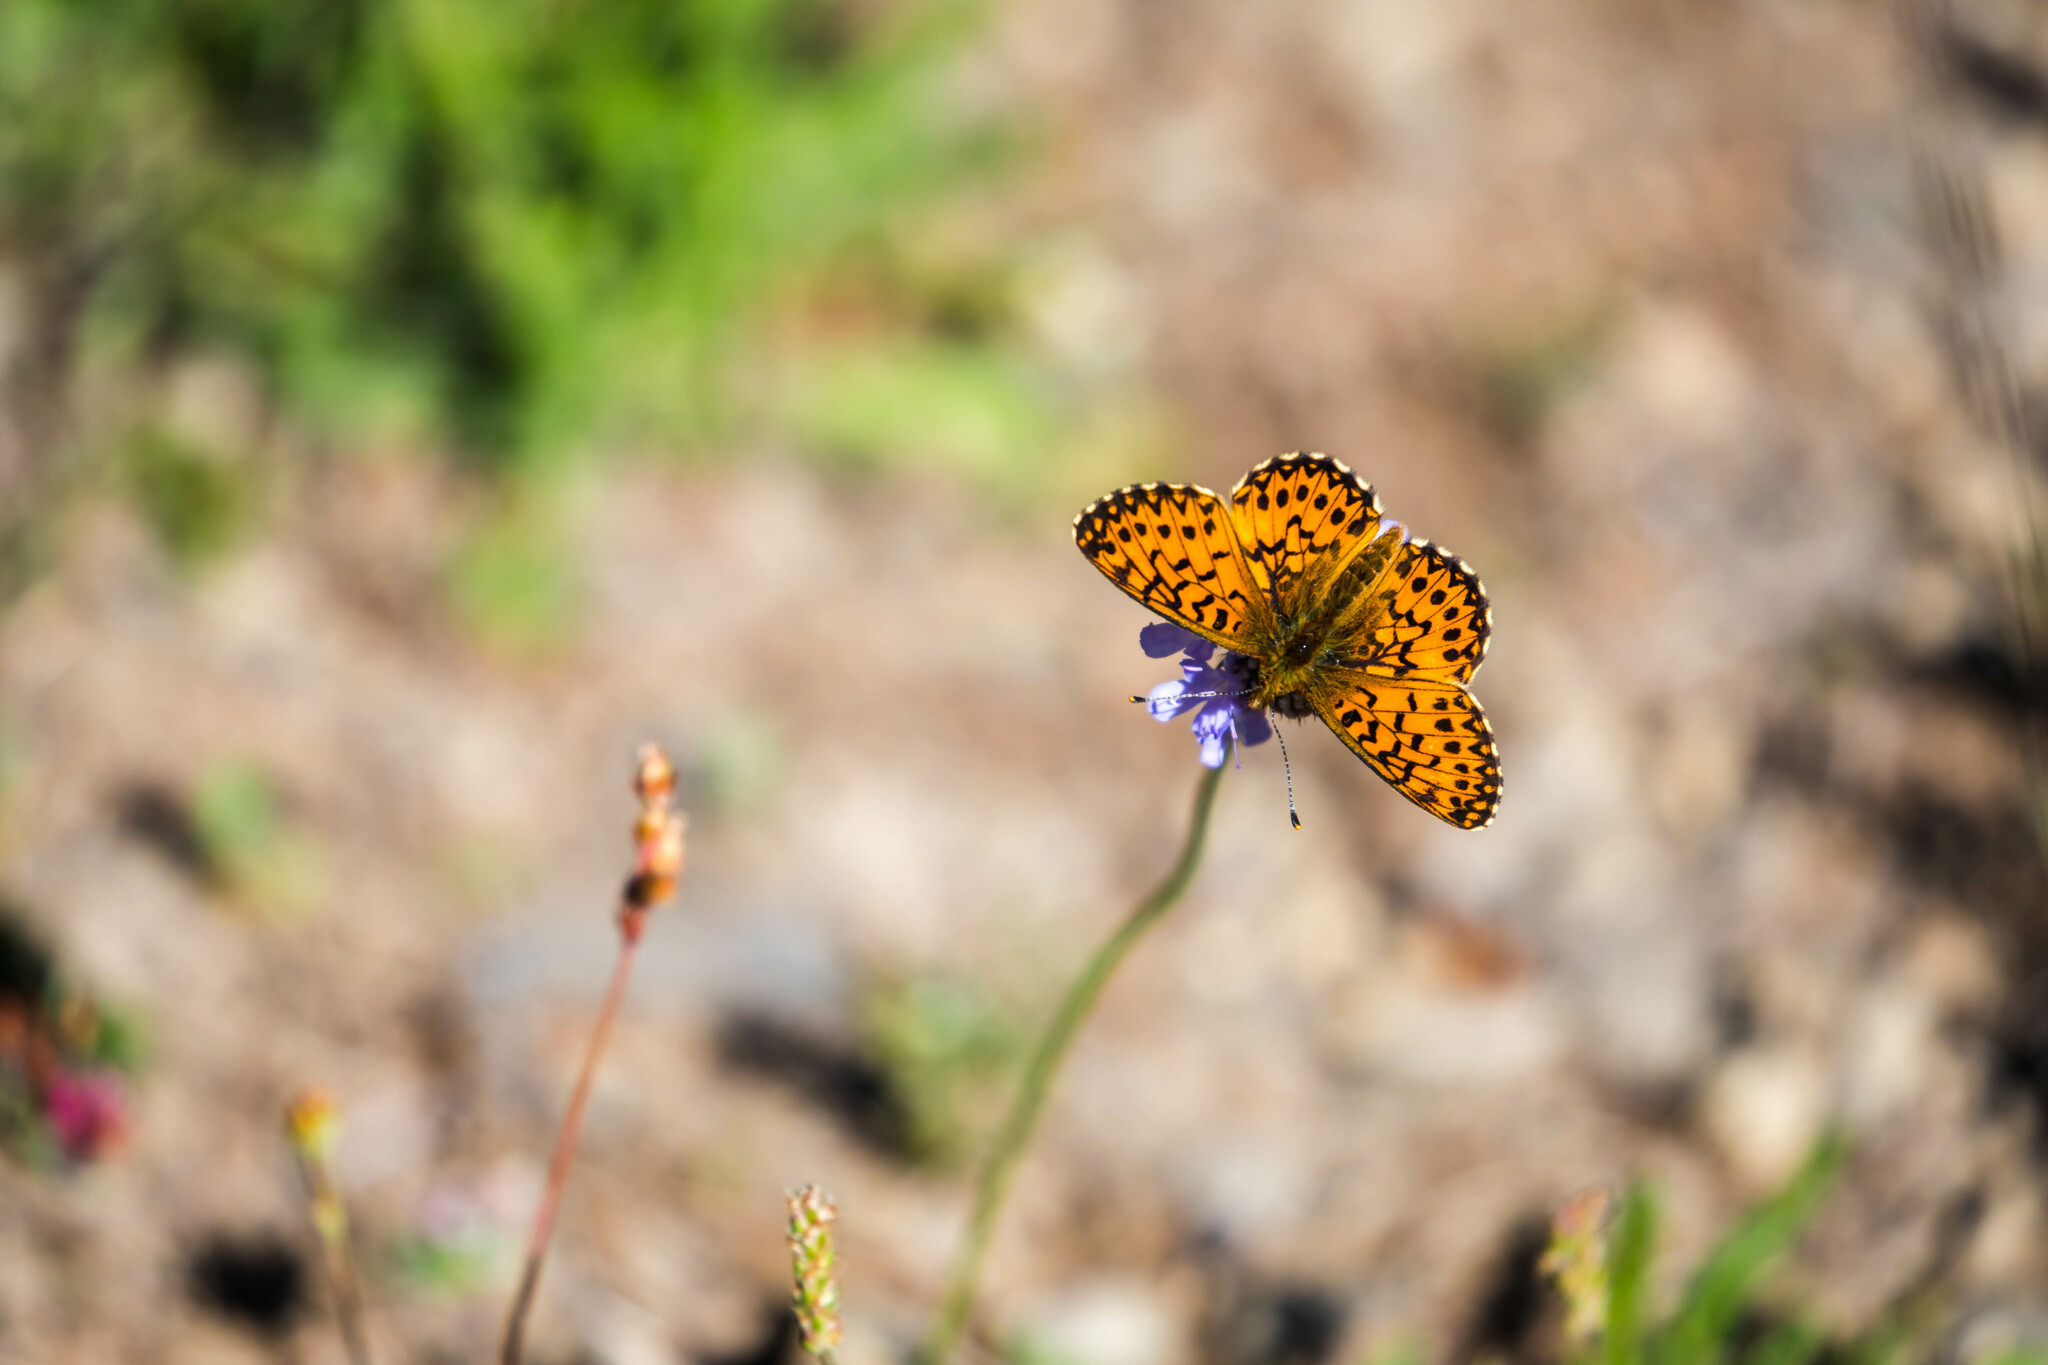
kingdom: Animalia
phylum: Arthropoda
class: Insecta
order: Lepidoptera
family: Nymphalidae
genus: Boloria
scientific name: Boloria titania
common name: Titania's fritillary
